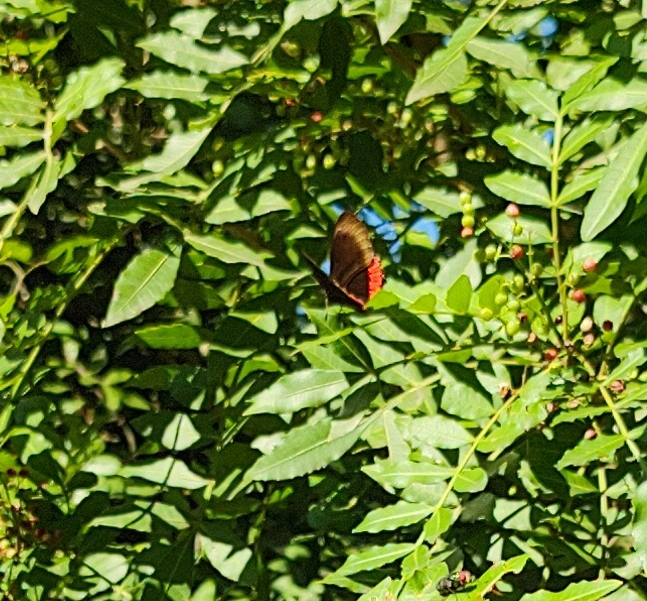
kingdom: Animalia
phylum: Arthropoda
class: Insecta
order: Lepidoptera
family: Sesiidae
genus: Sesia
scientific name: Sesia Biblis hyperia
